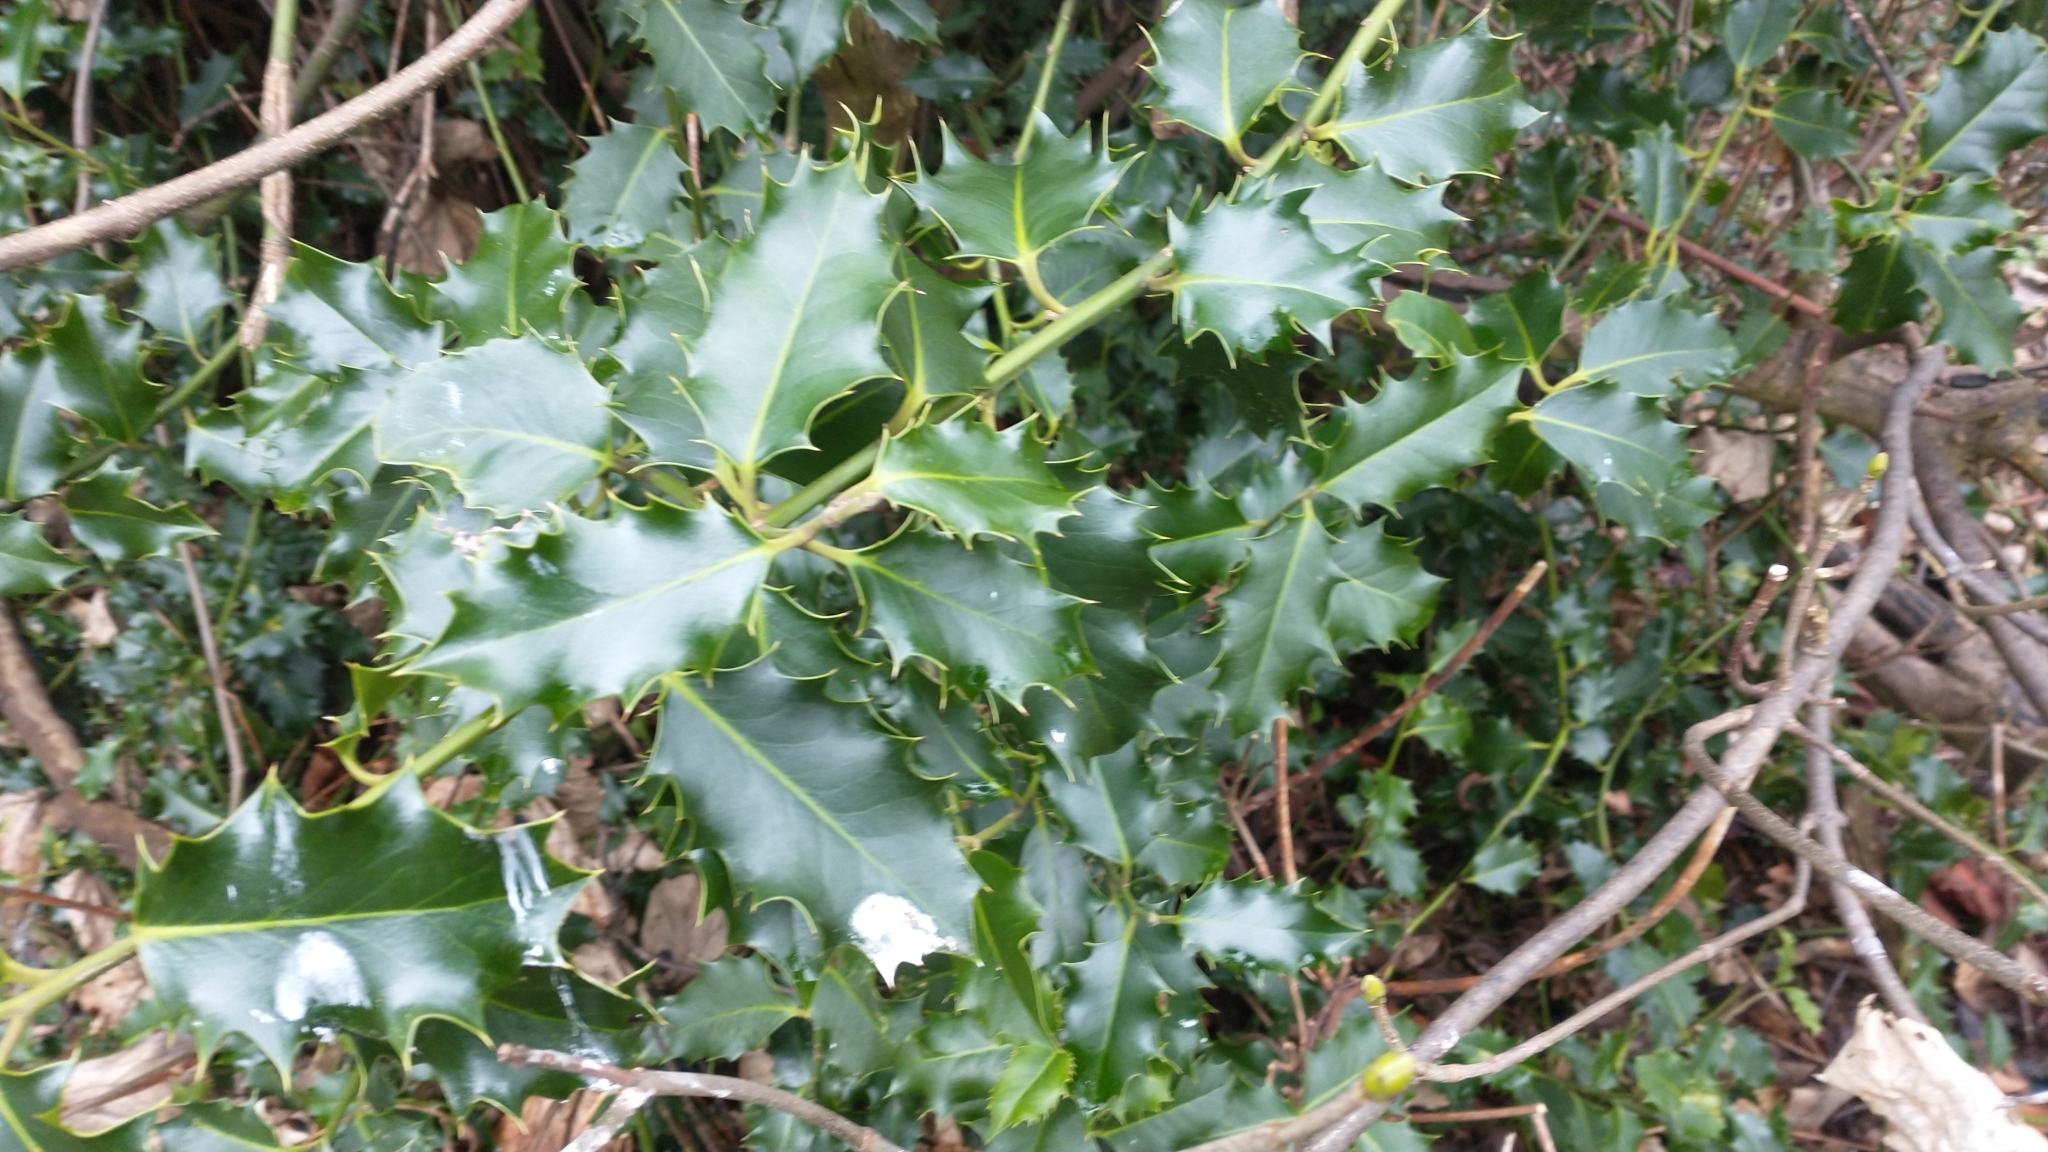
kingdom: Plantae
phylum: Tracheophyta
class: Magnoliopsida
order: Aquifoliales
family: Aquifoliaceae
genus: Ilex
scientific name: Ilex aquifolium
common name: English holly
